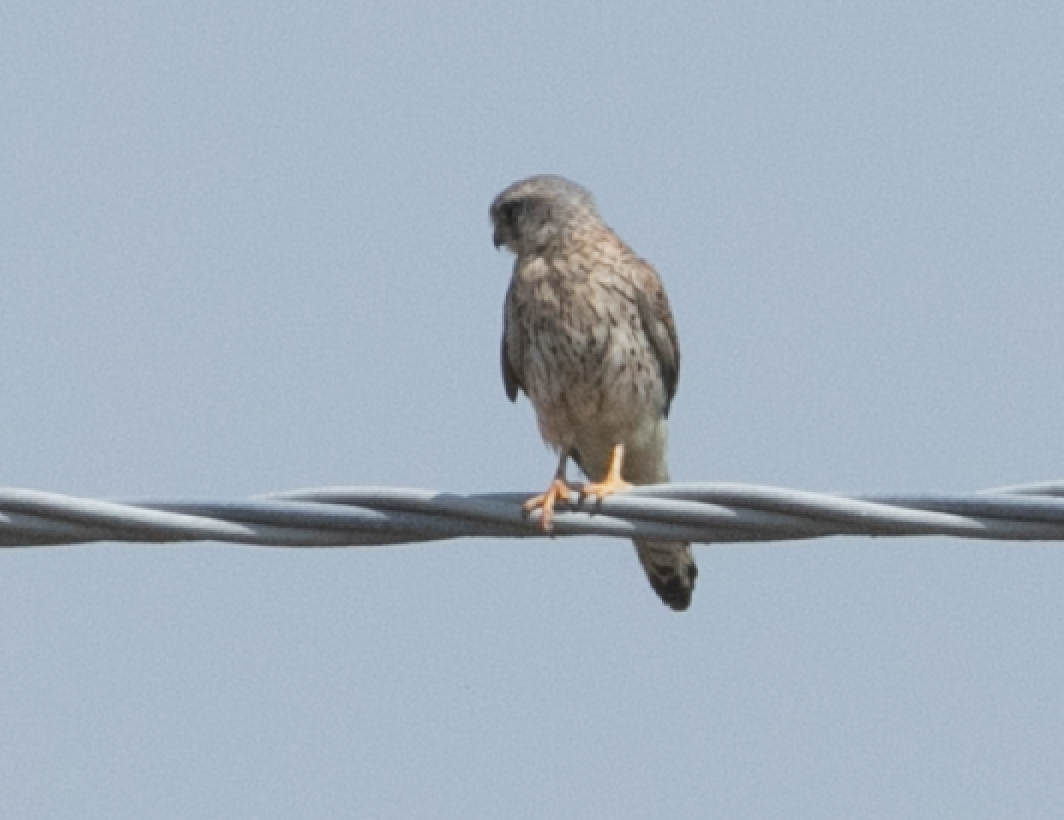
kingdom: Animalia
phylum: Chordata
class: Aves
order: Falconiformes
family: Falconidae
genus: Falco
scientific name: Falco tinnunculus
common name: Common kestrel
